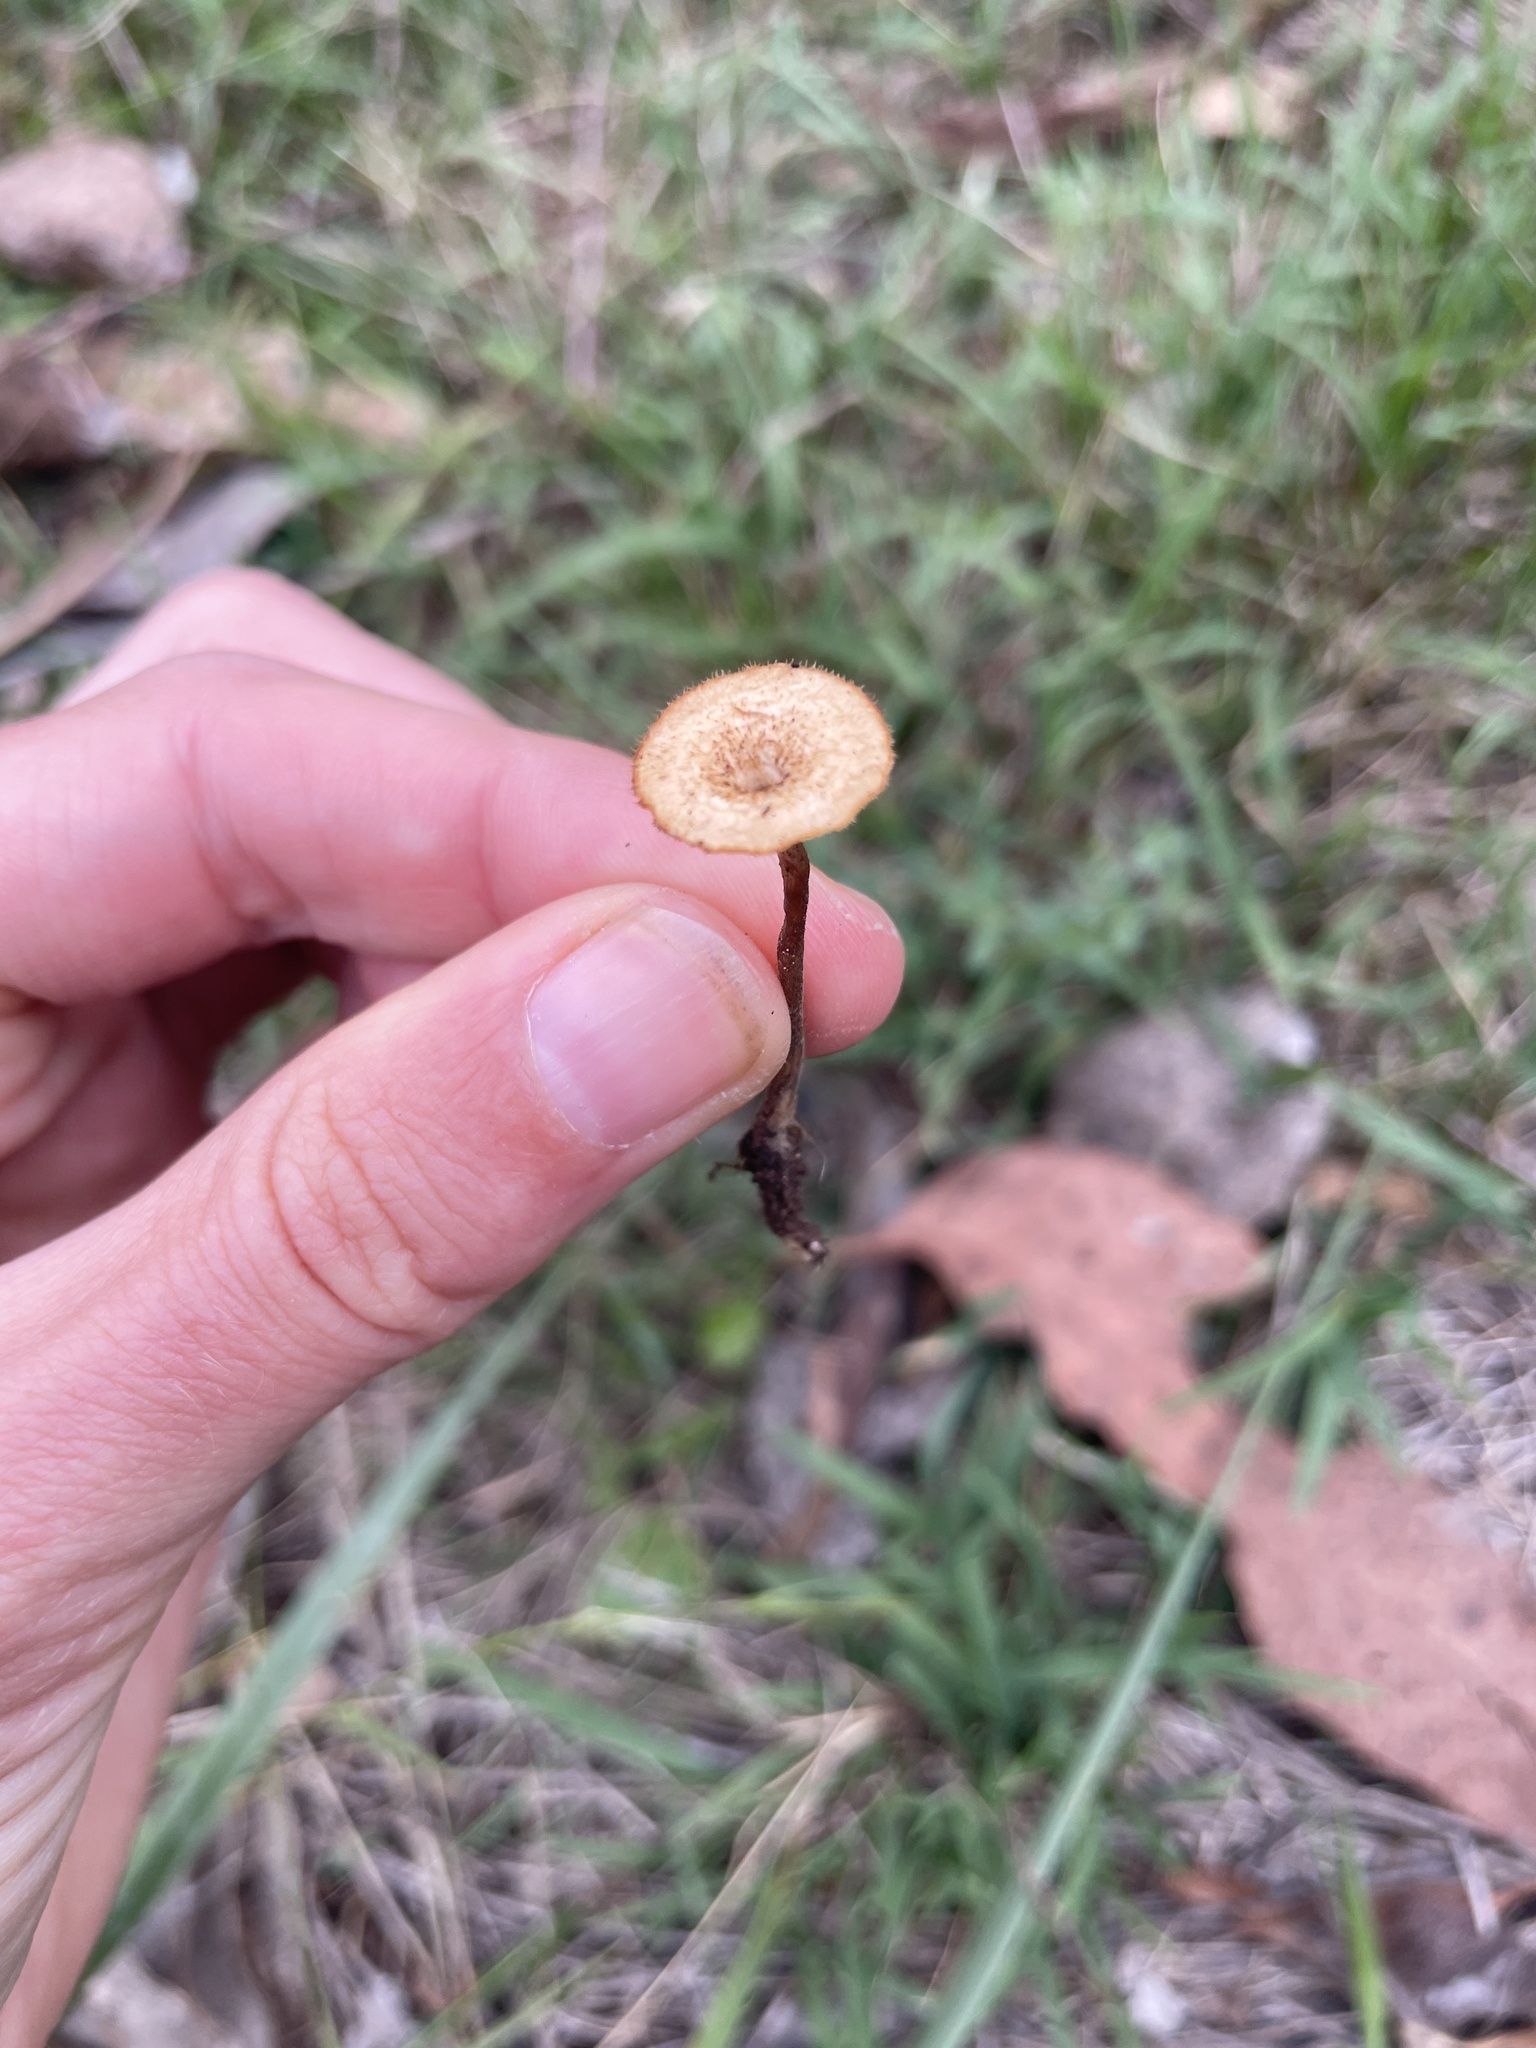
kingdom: Fungi
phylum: Basidiomycota
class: Agaricomycetes
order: Polyporales
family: Polyporaceae
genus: Lentinus
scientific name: Lentinus arcularius
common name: Spring polypore
